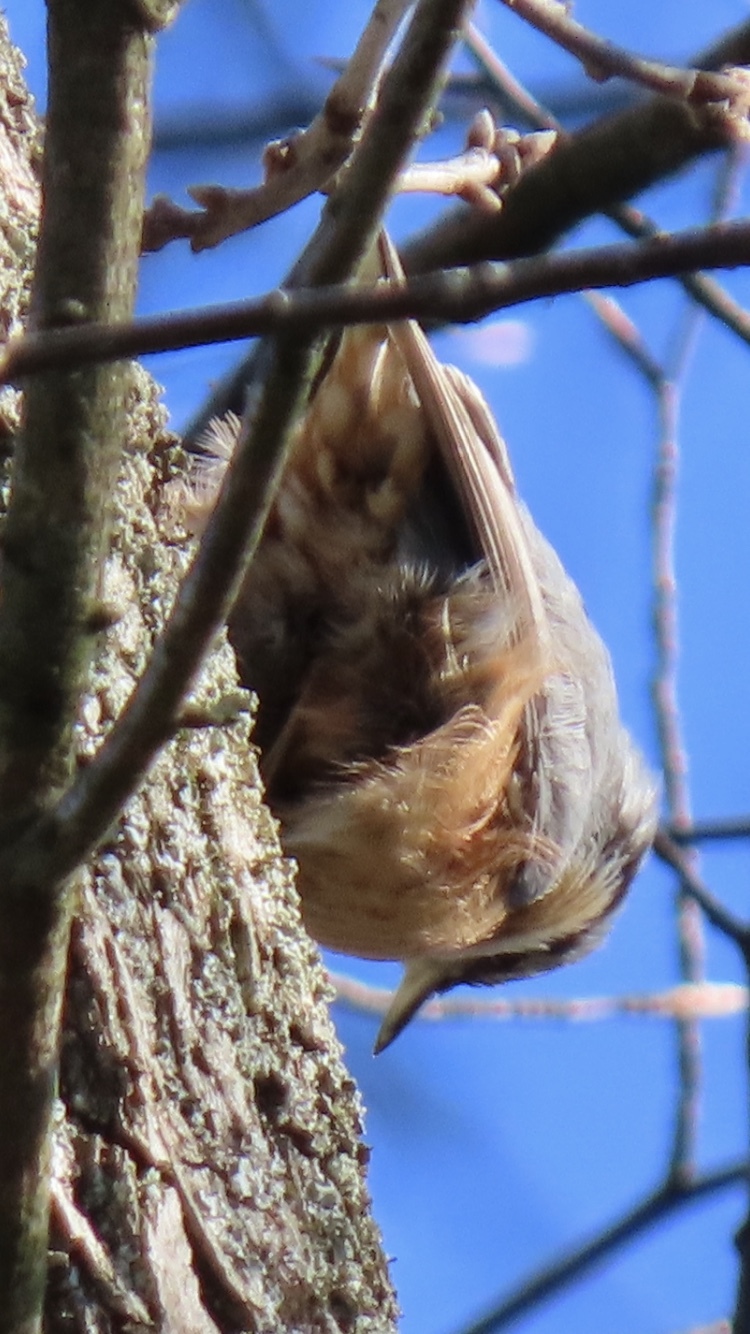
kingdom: Animalia
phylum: Chordata
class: Aves
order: Passeriformes
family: Sittidae
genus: Sitta
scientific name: Sitta europaea
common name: Eurasian nuthatch
